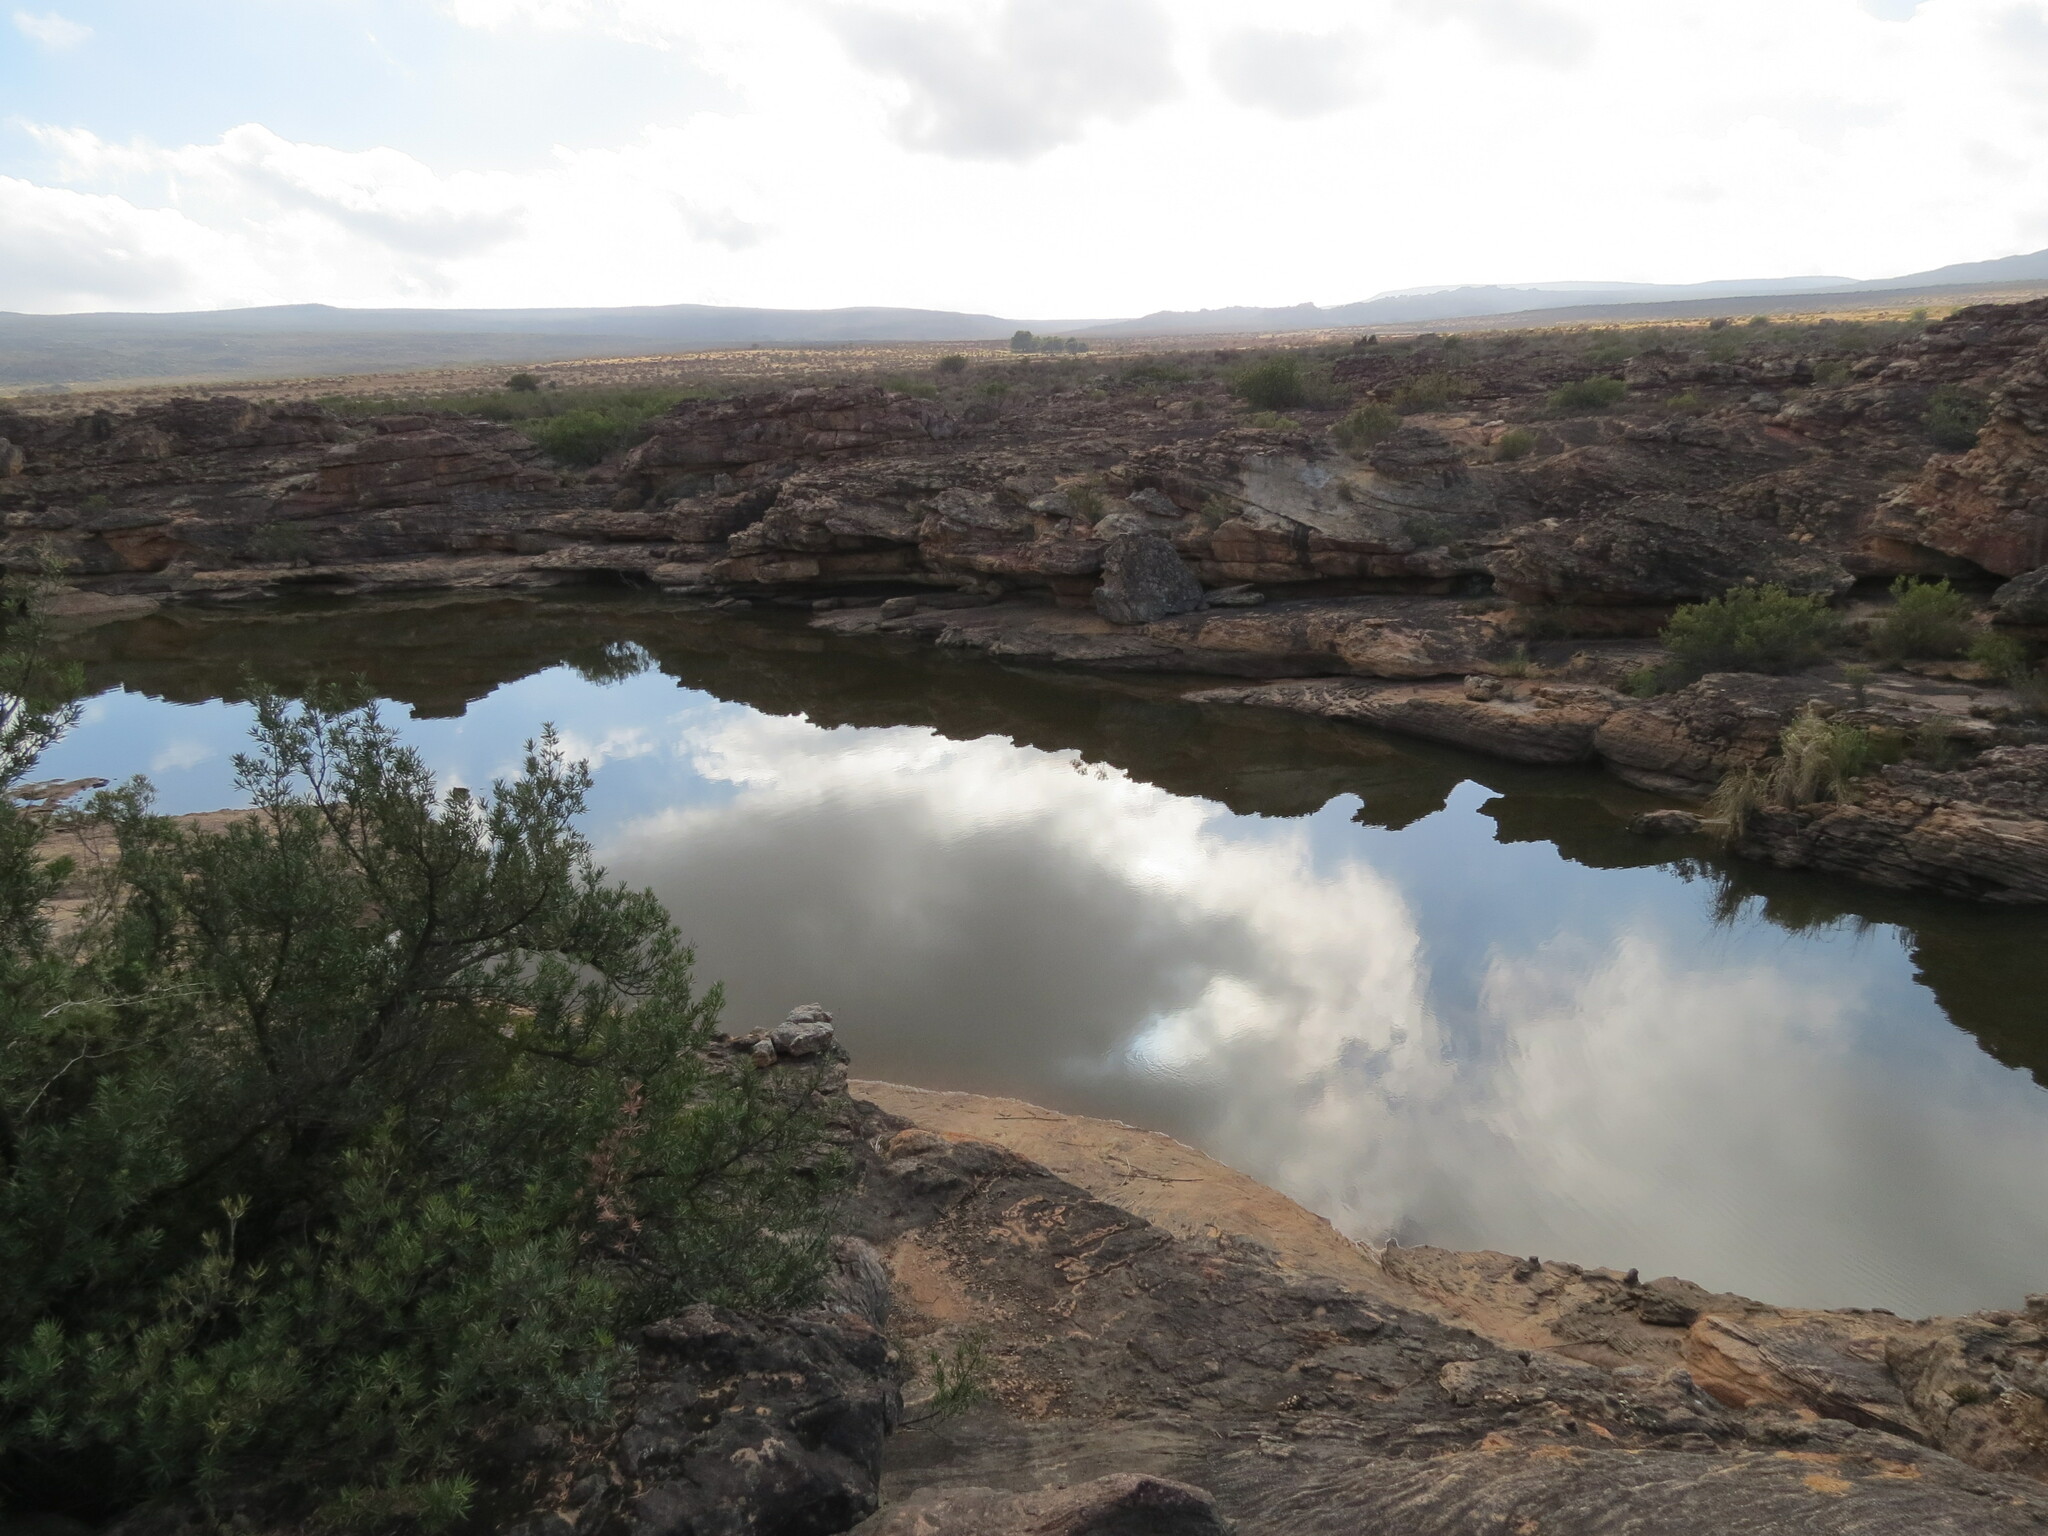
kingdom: Plantae
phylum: Tracheophyta
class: Pinopsida
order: Pinales
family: Podocarpaceae
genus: Podocarpus
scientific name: Podocarpus elongatus
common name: Breede river yellowwood
